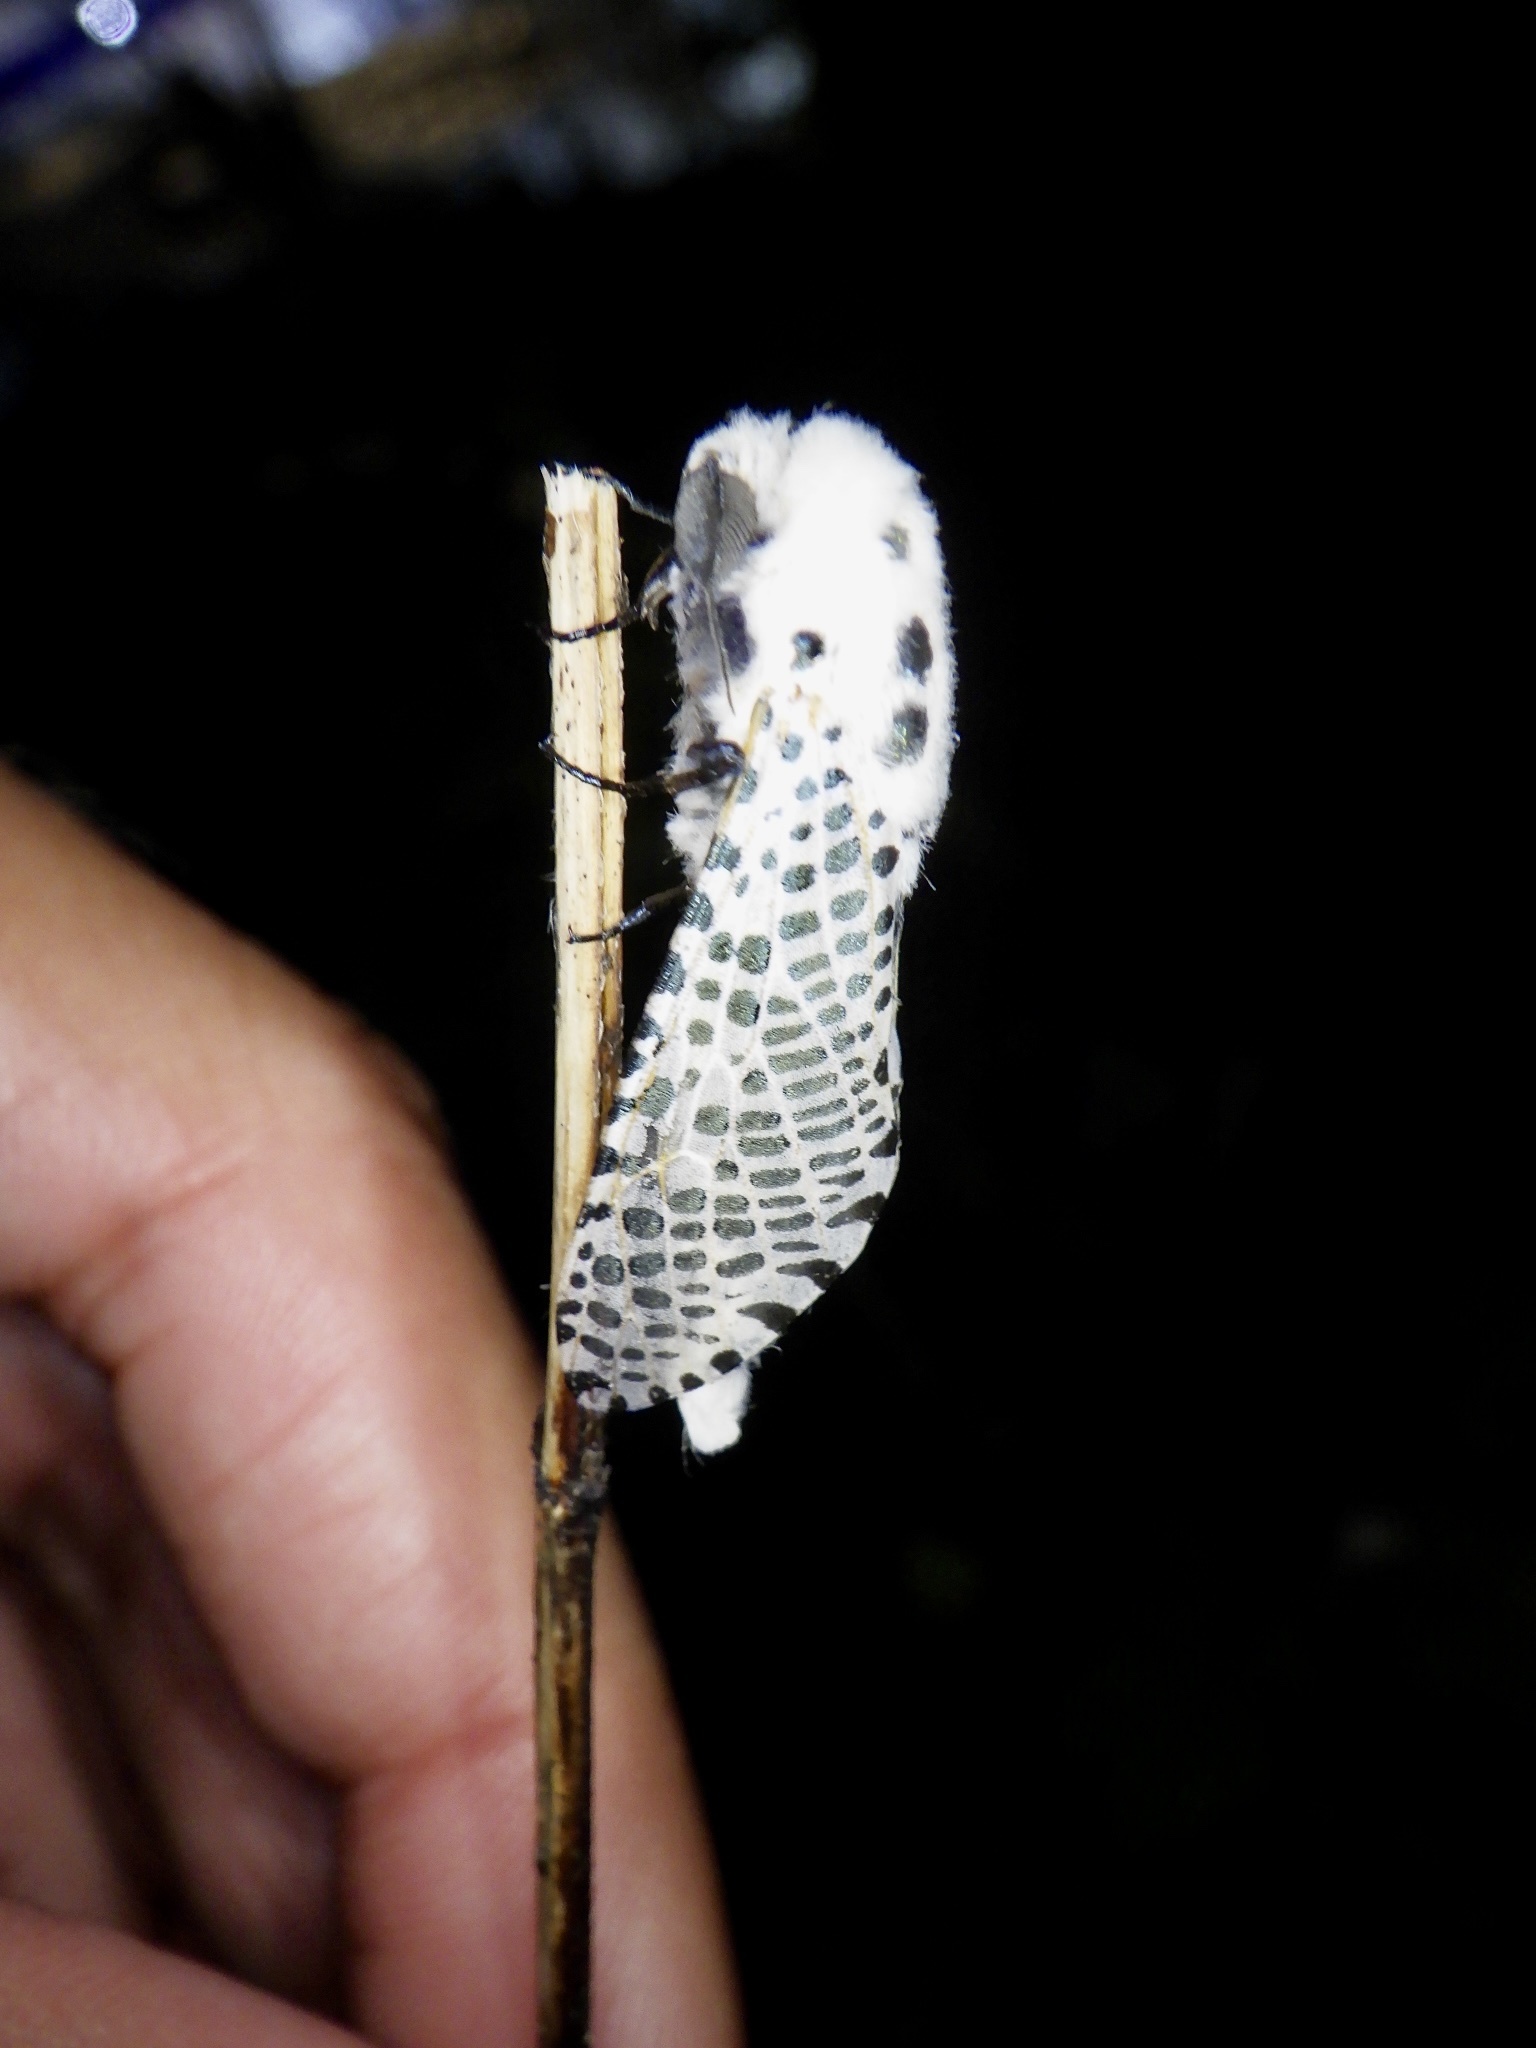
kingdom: Animalia
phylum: Arthropoda
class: Insecta
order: Lepidoptera
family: Cossidae
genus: Zeuzera
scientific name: Zeuzera multistrigata
